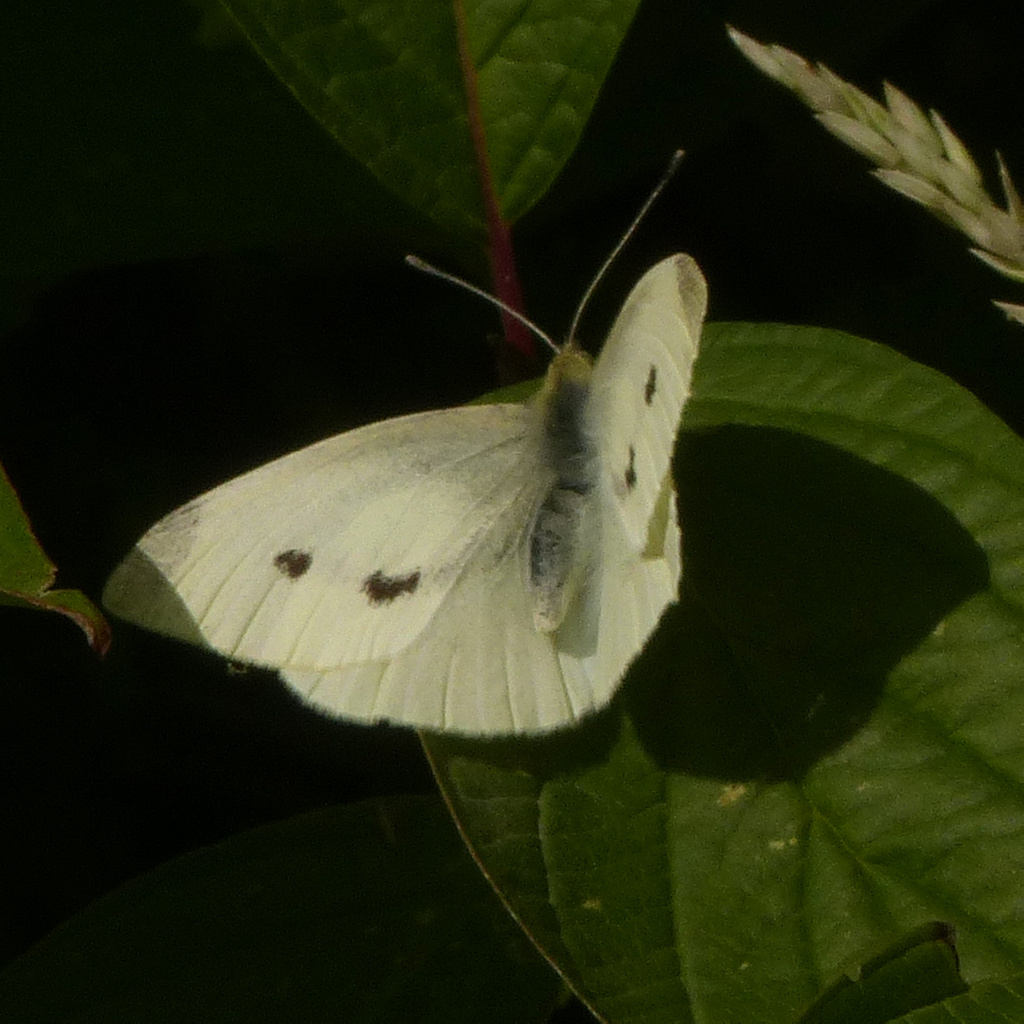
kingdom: Animalia
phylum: Arthropoda
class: Insecta
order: Lepidoptera
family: Pieridae
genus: Pieris
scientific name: Pieris rapae
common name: Small white
